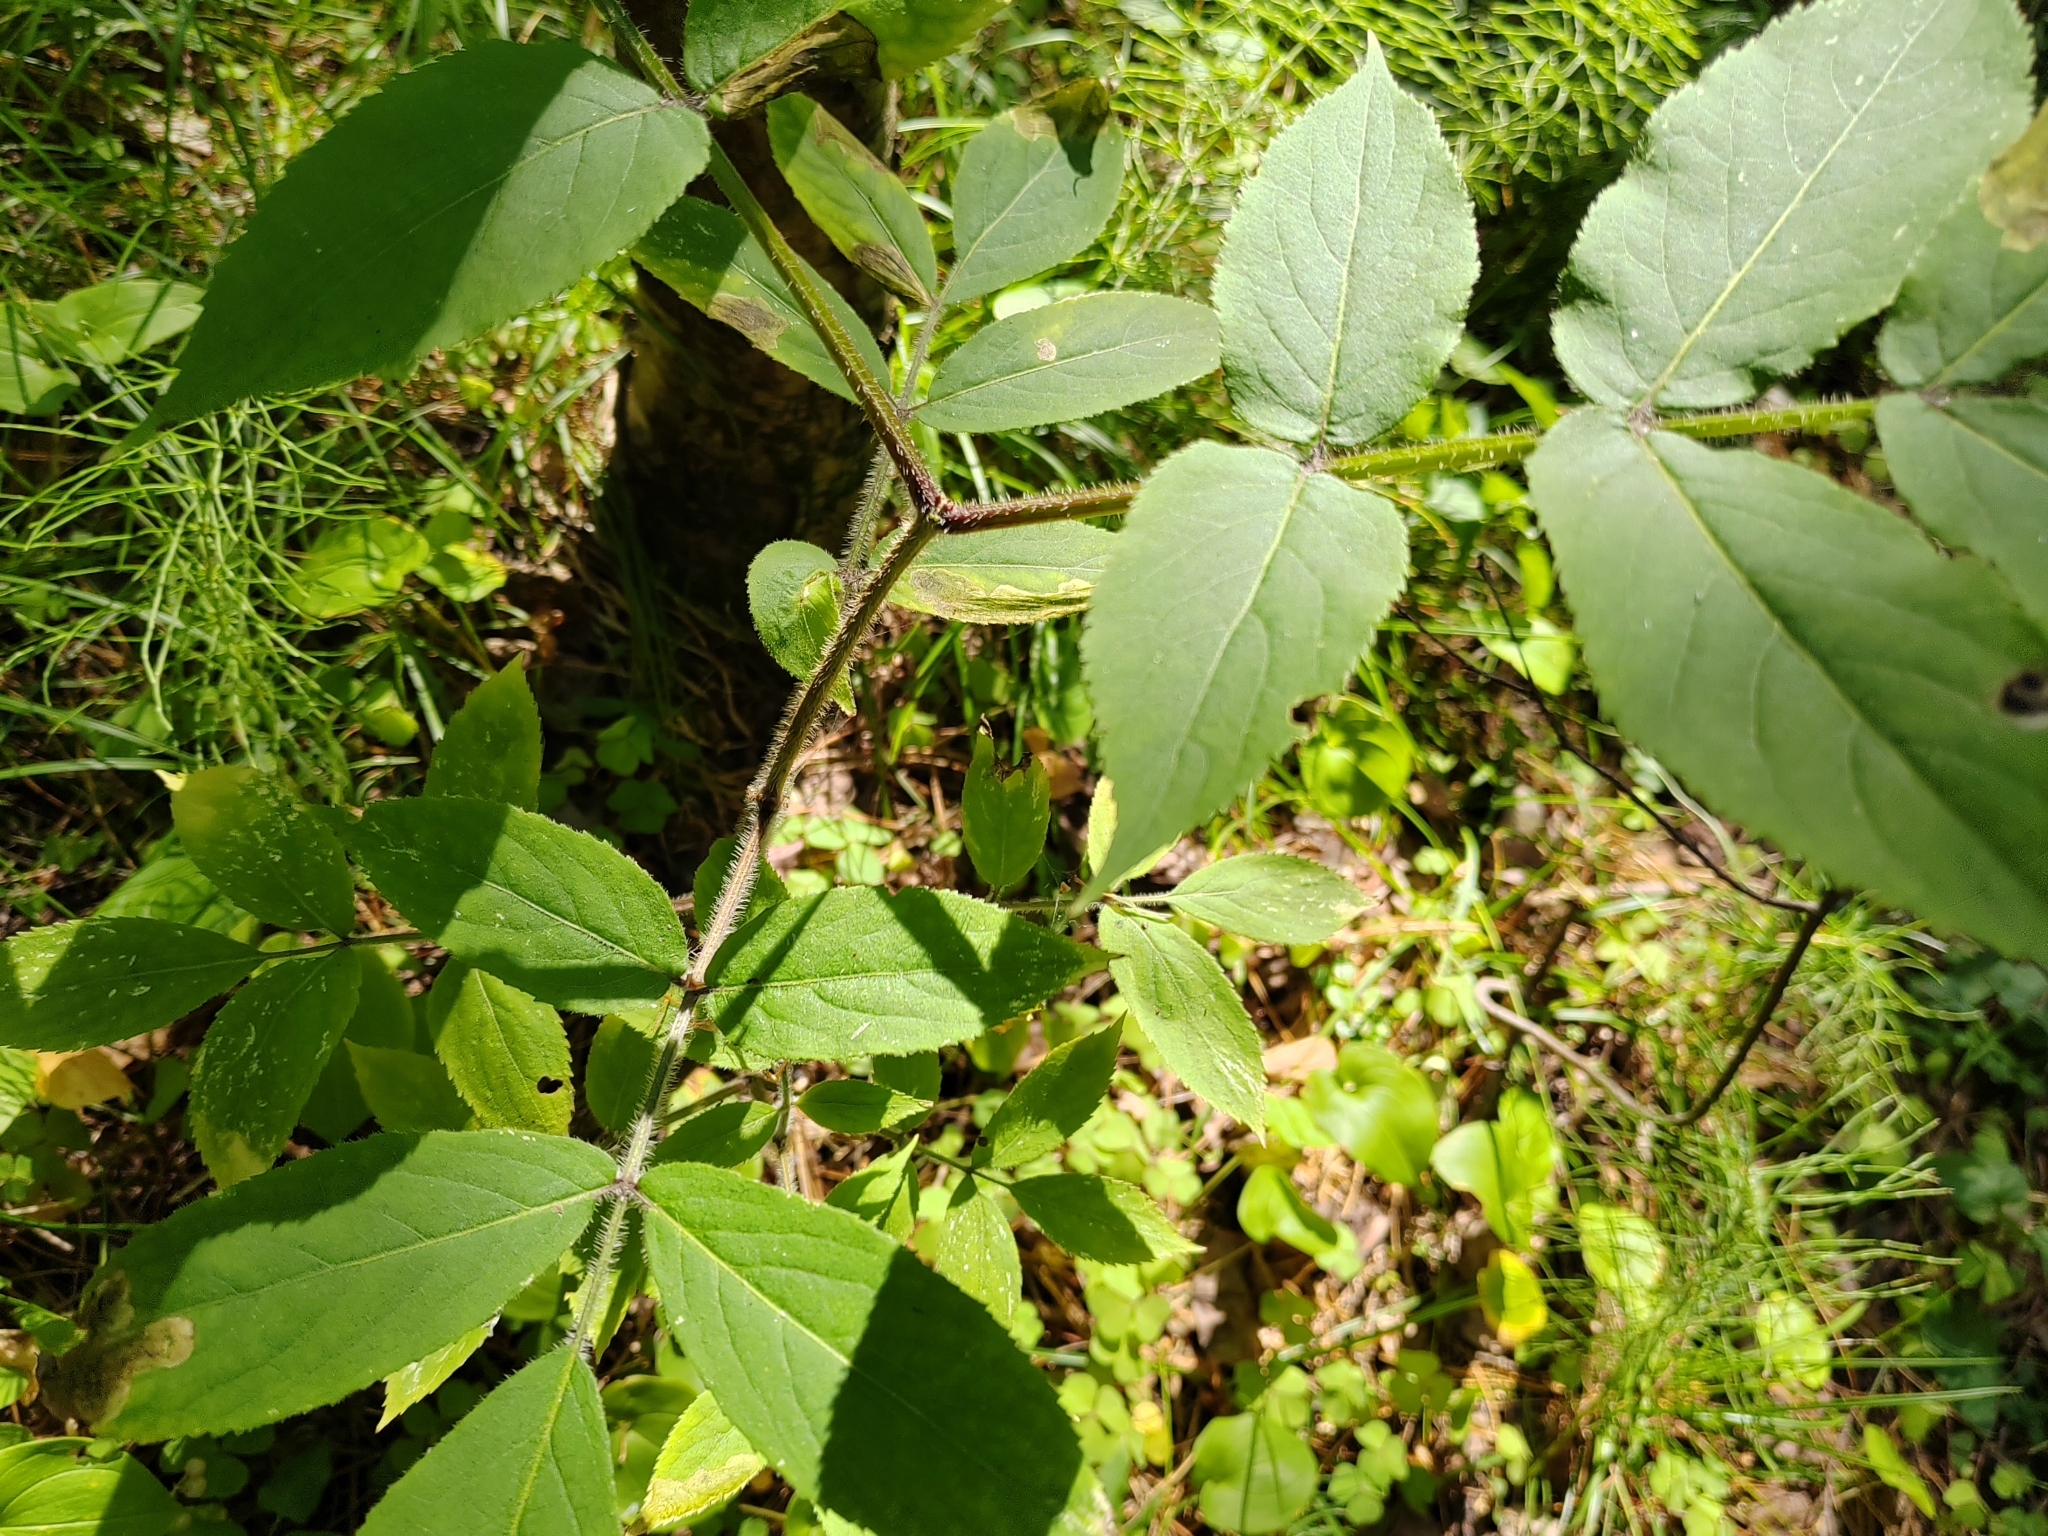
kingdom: Plantae
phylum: Tracheophyta
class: Magnoliopsida
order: Dipsacales
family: Viburnaceae
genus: Sambucus
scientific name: Sambucus sibirica
